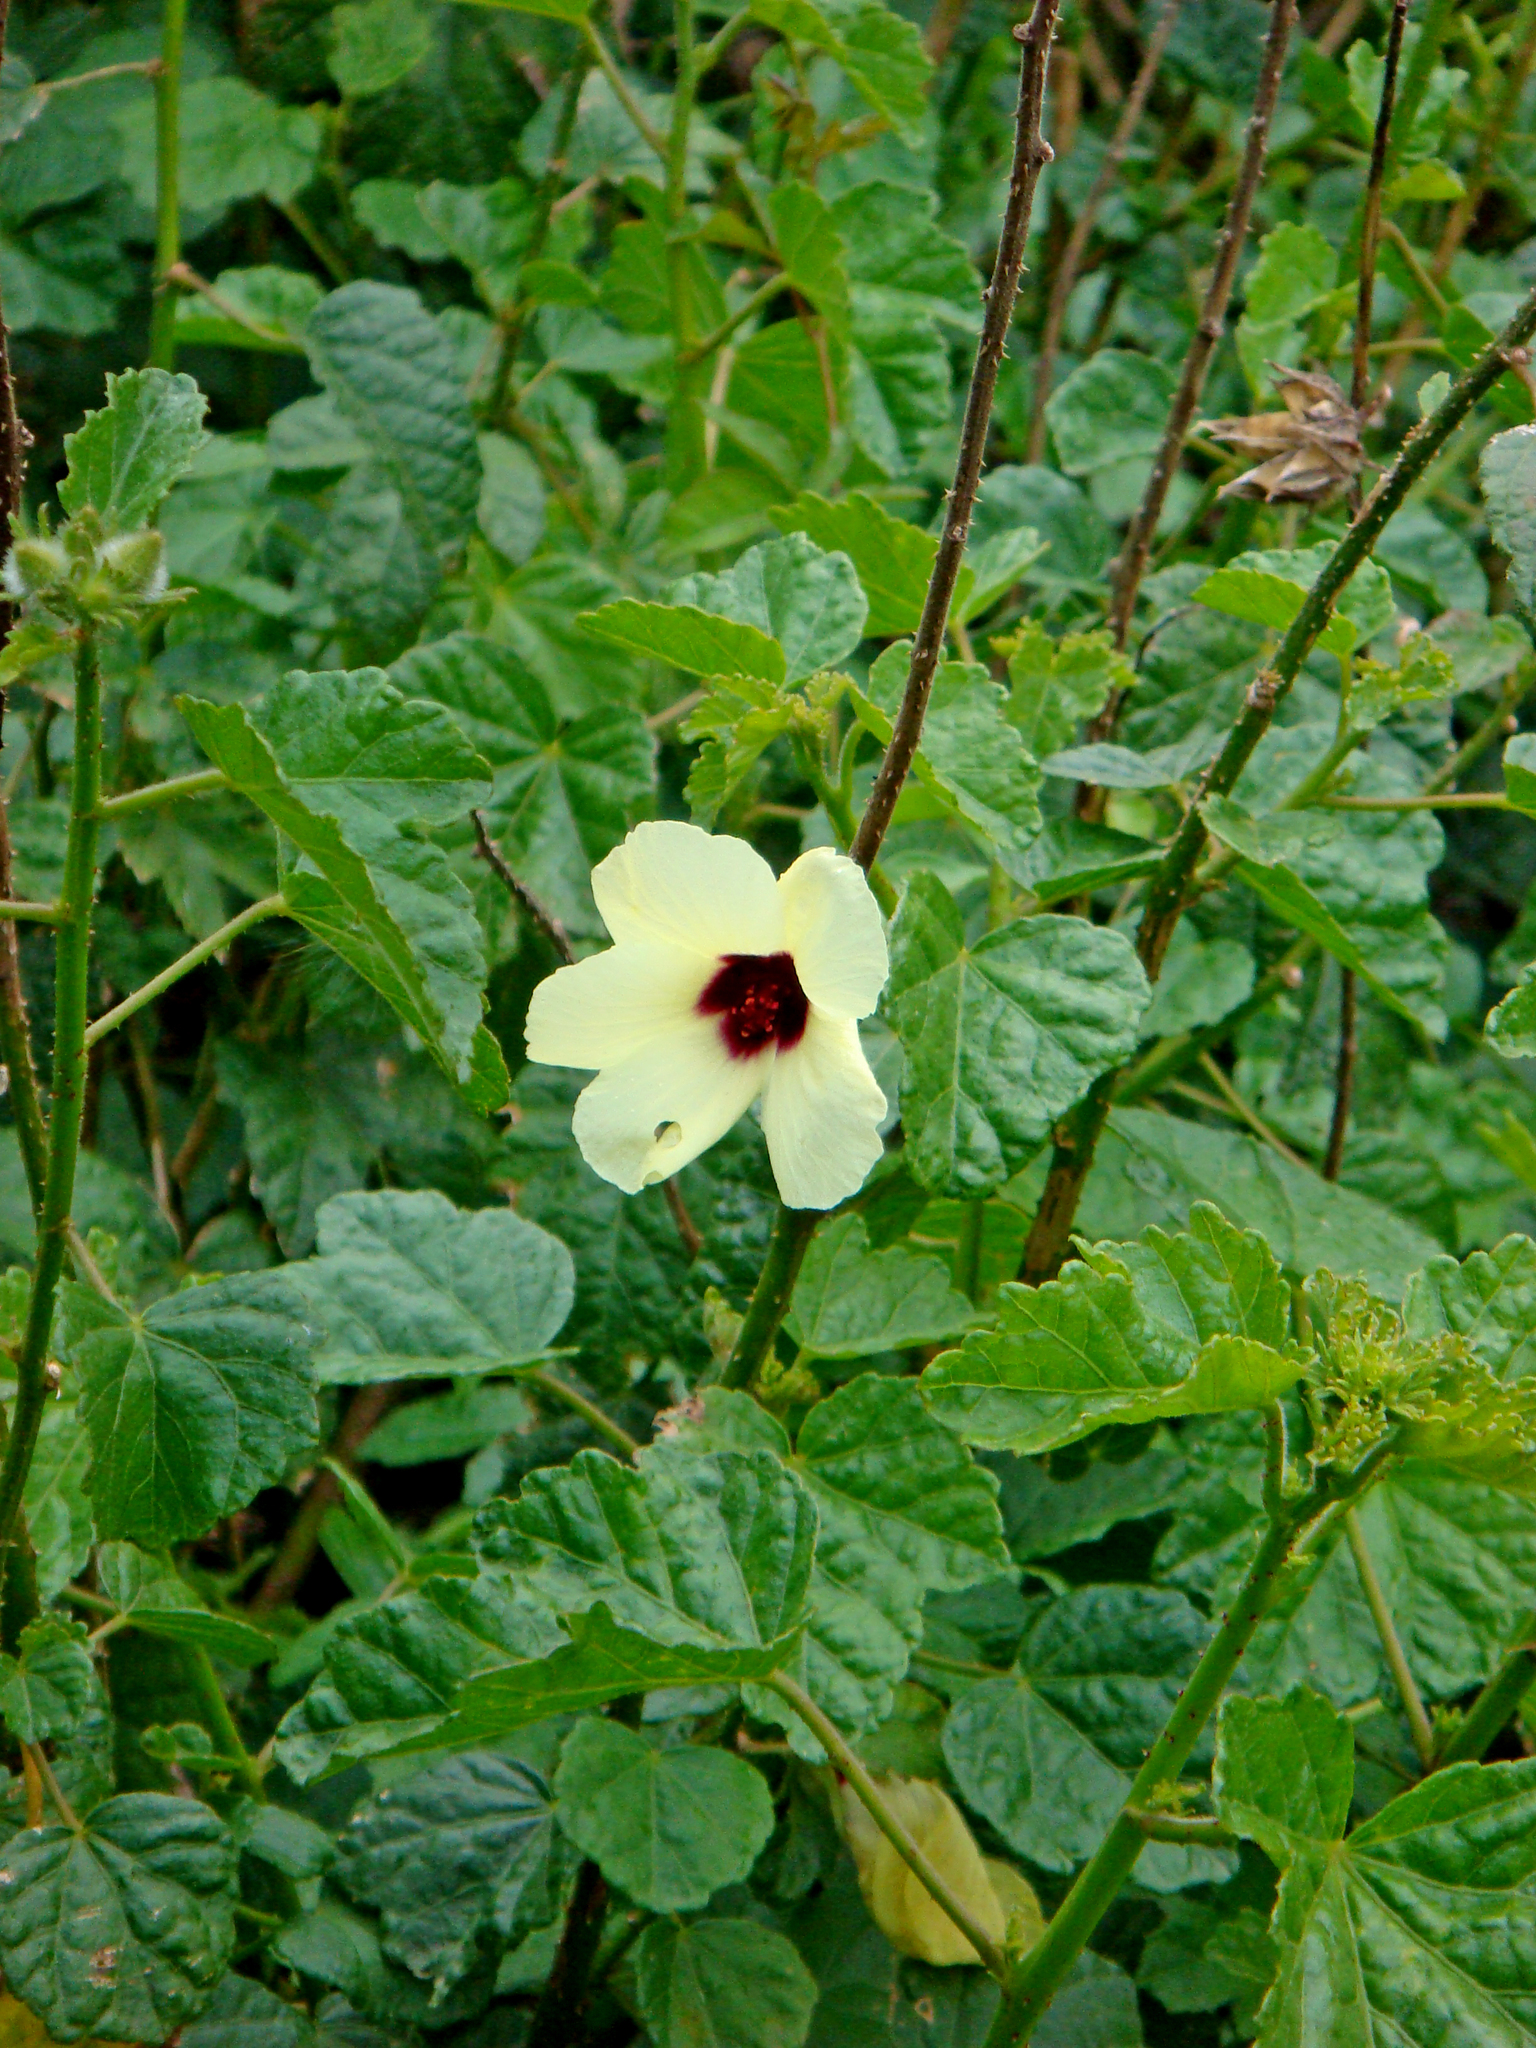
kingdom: Plantae
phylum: Tracheophyta
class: Magnoliopsida
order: Malvales
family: Malvaceae
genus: Hibiscus
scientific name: Hibiscus diversifolius
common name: Cape hibiscus
